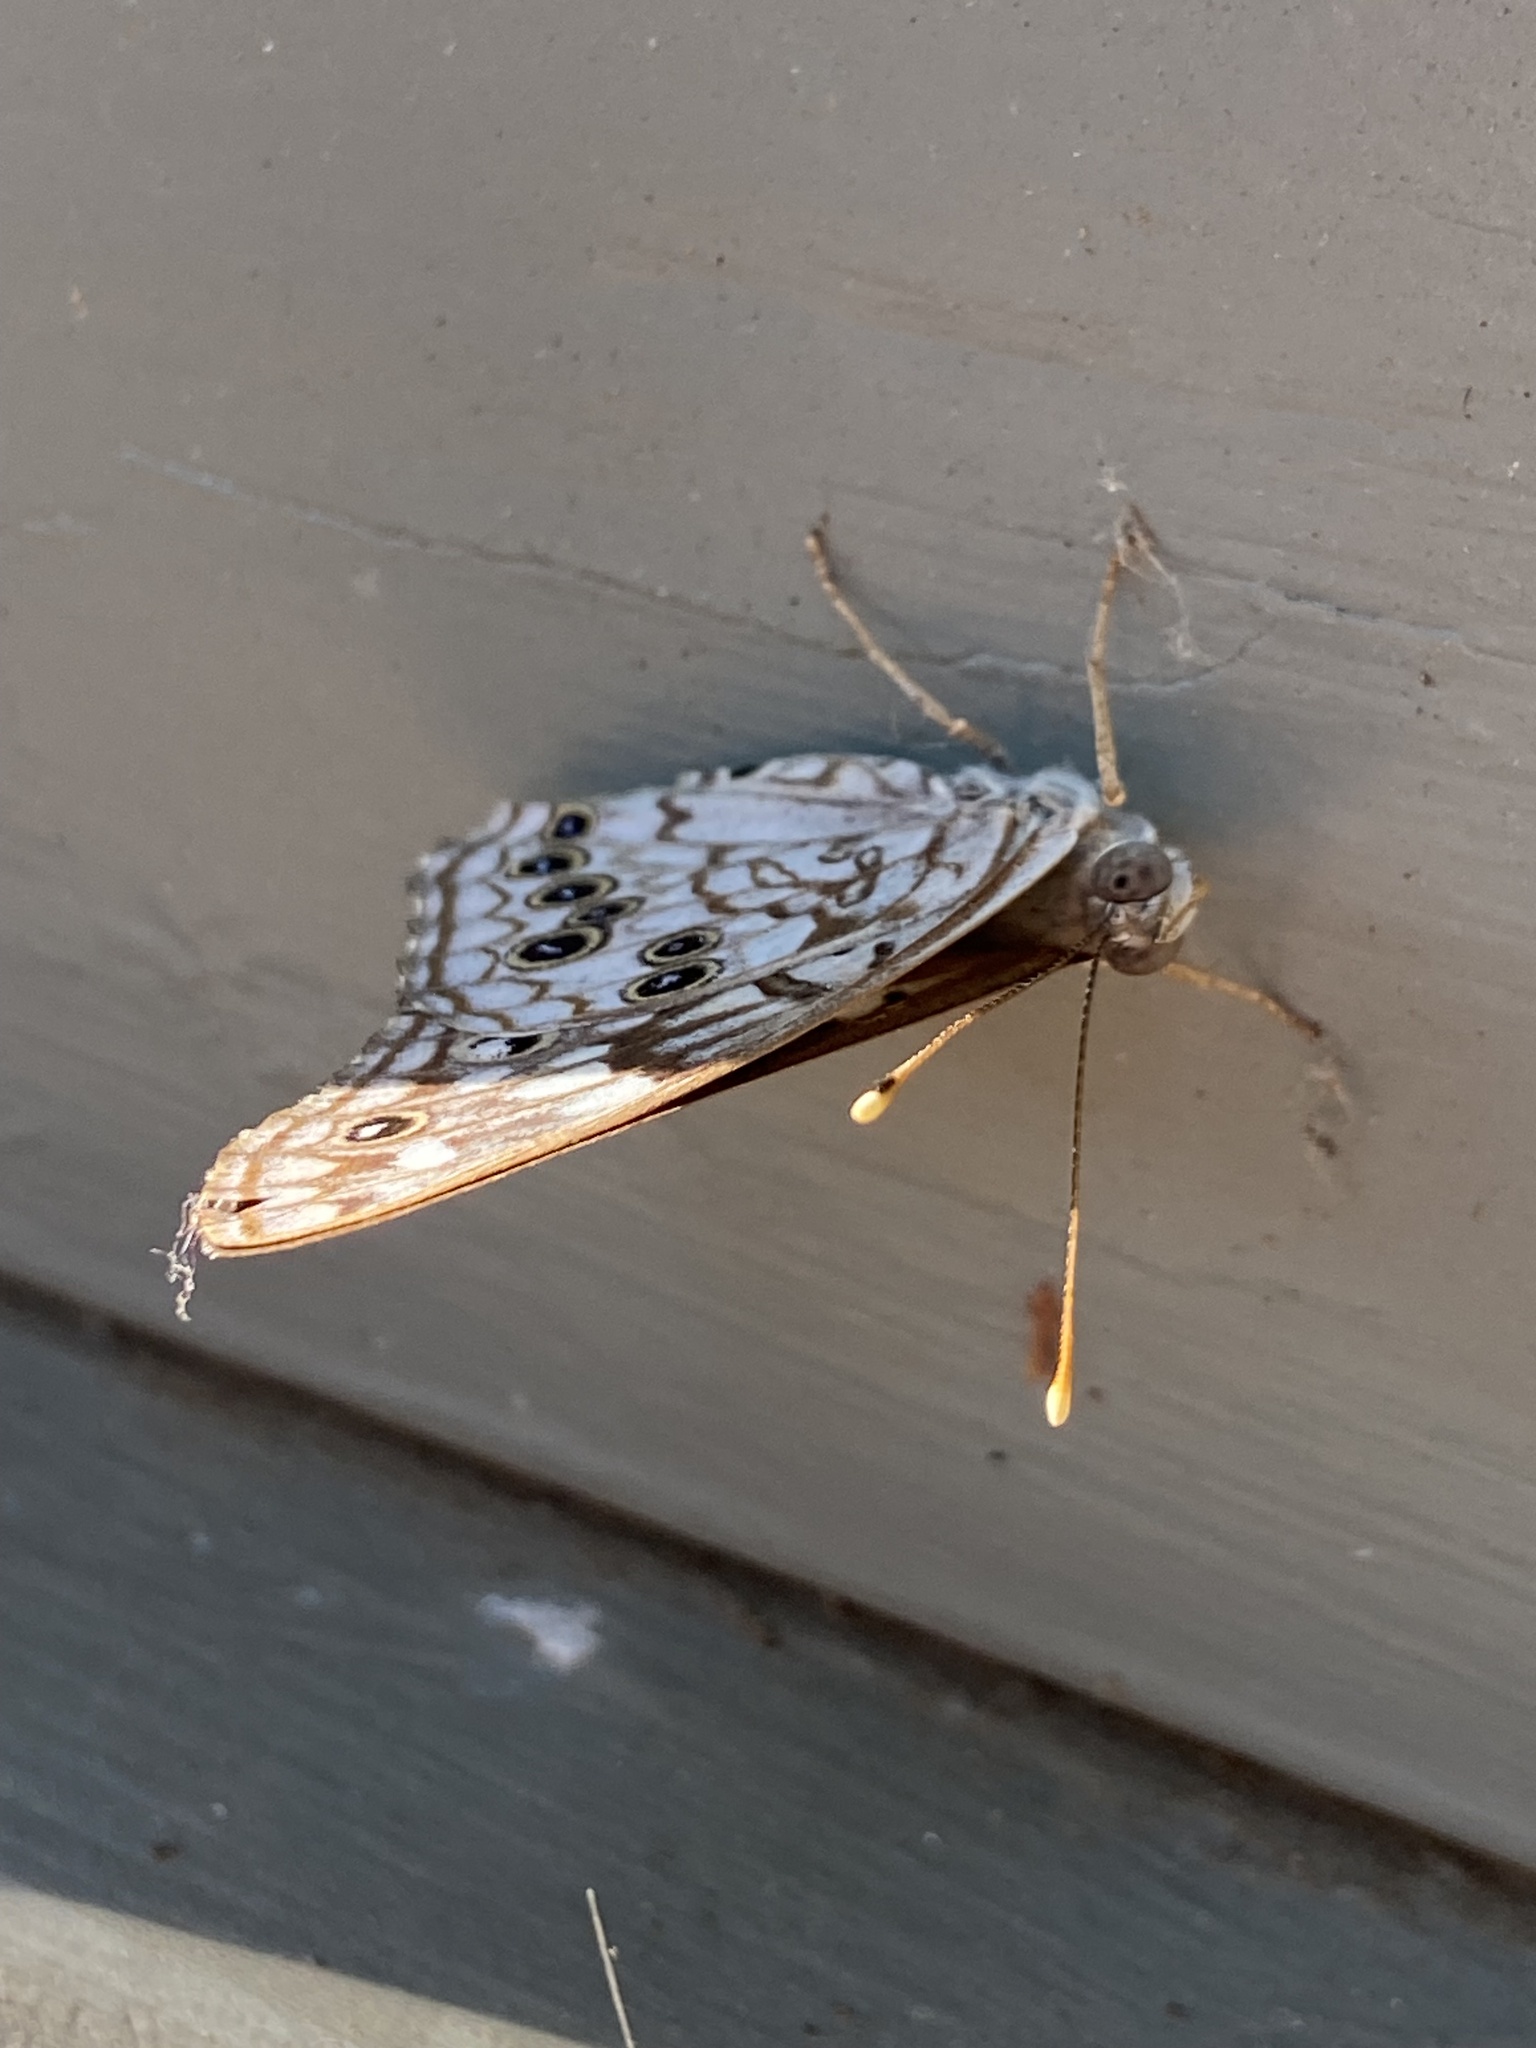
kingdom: Animalia
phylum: Arthropoda
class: Insecta
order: Lepidoptera
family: Nymphalidae
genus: Asterocampa
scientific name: Asterocampa celtis
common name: Hackberry emperor
